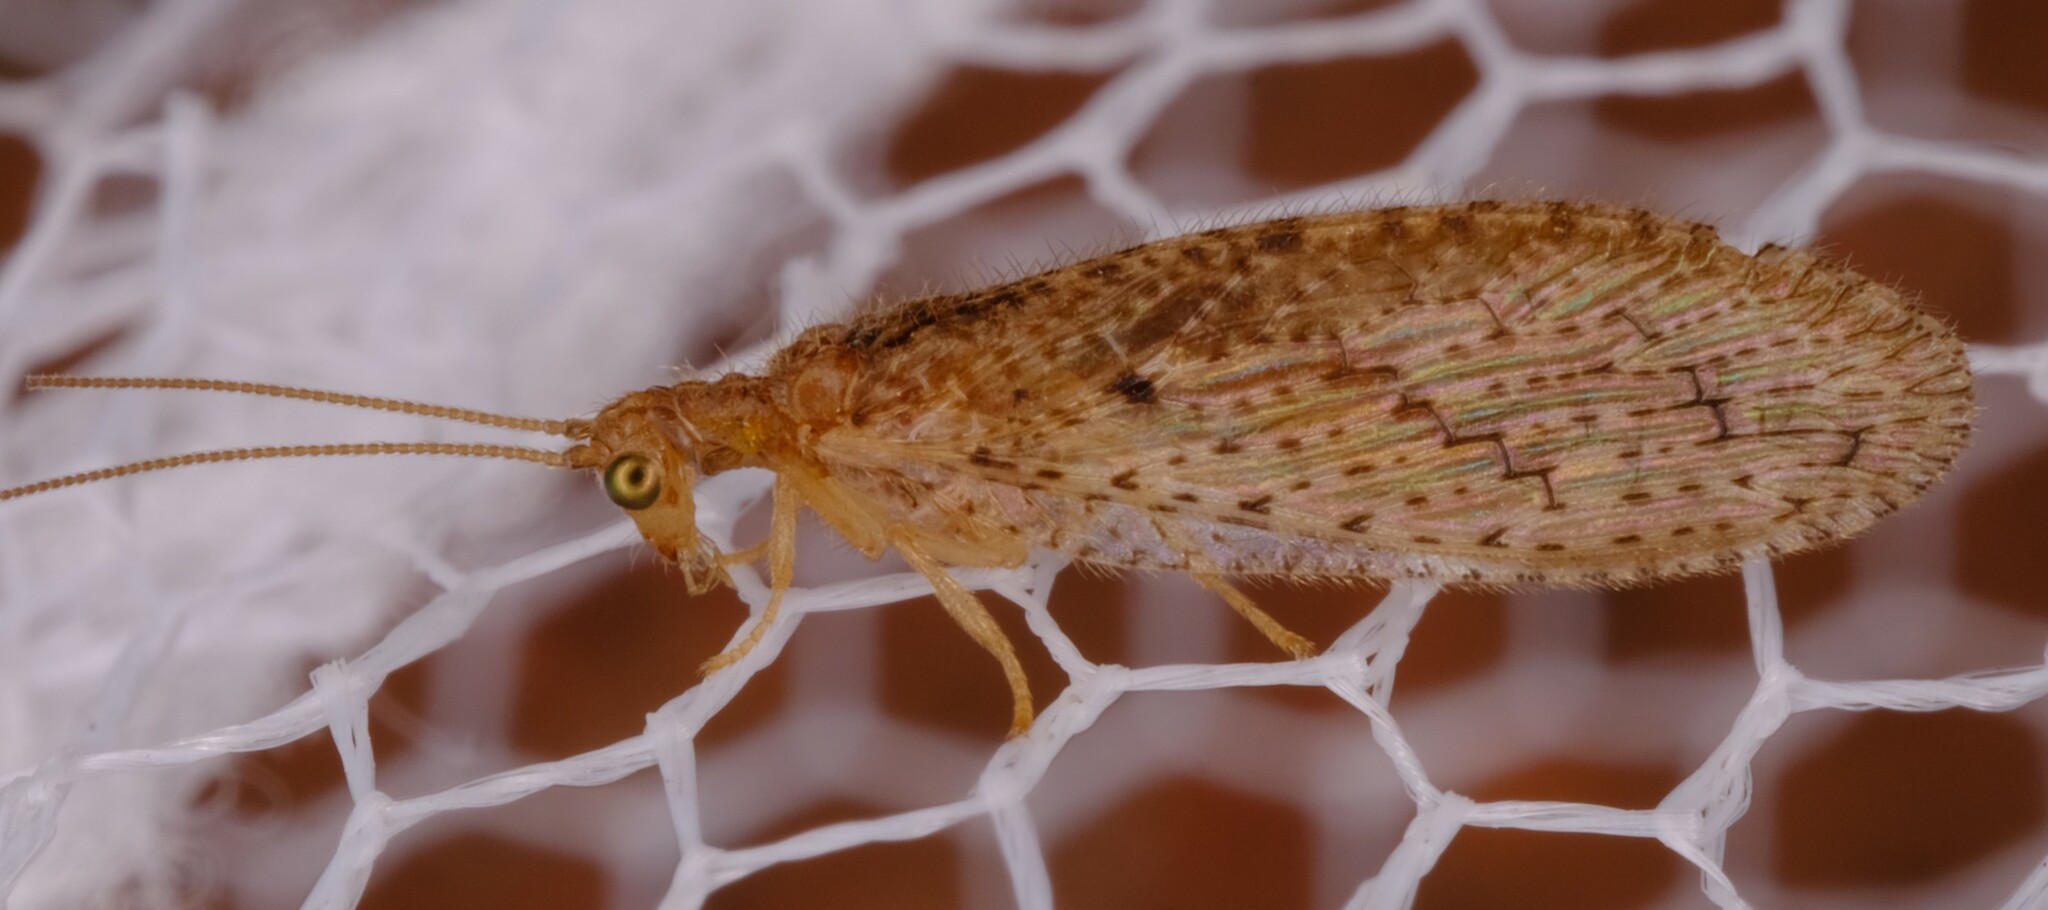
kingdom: Animalia
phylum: Arthropoda
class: Insecta
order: Neuroptera
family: Hemerobiidae
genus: Micromus
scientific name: Micromus tasmaniae
